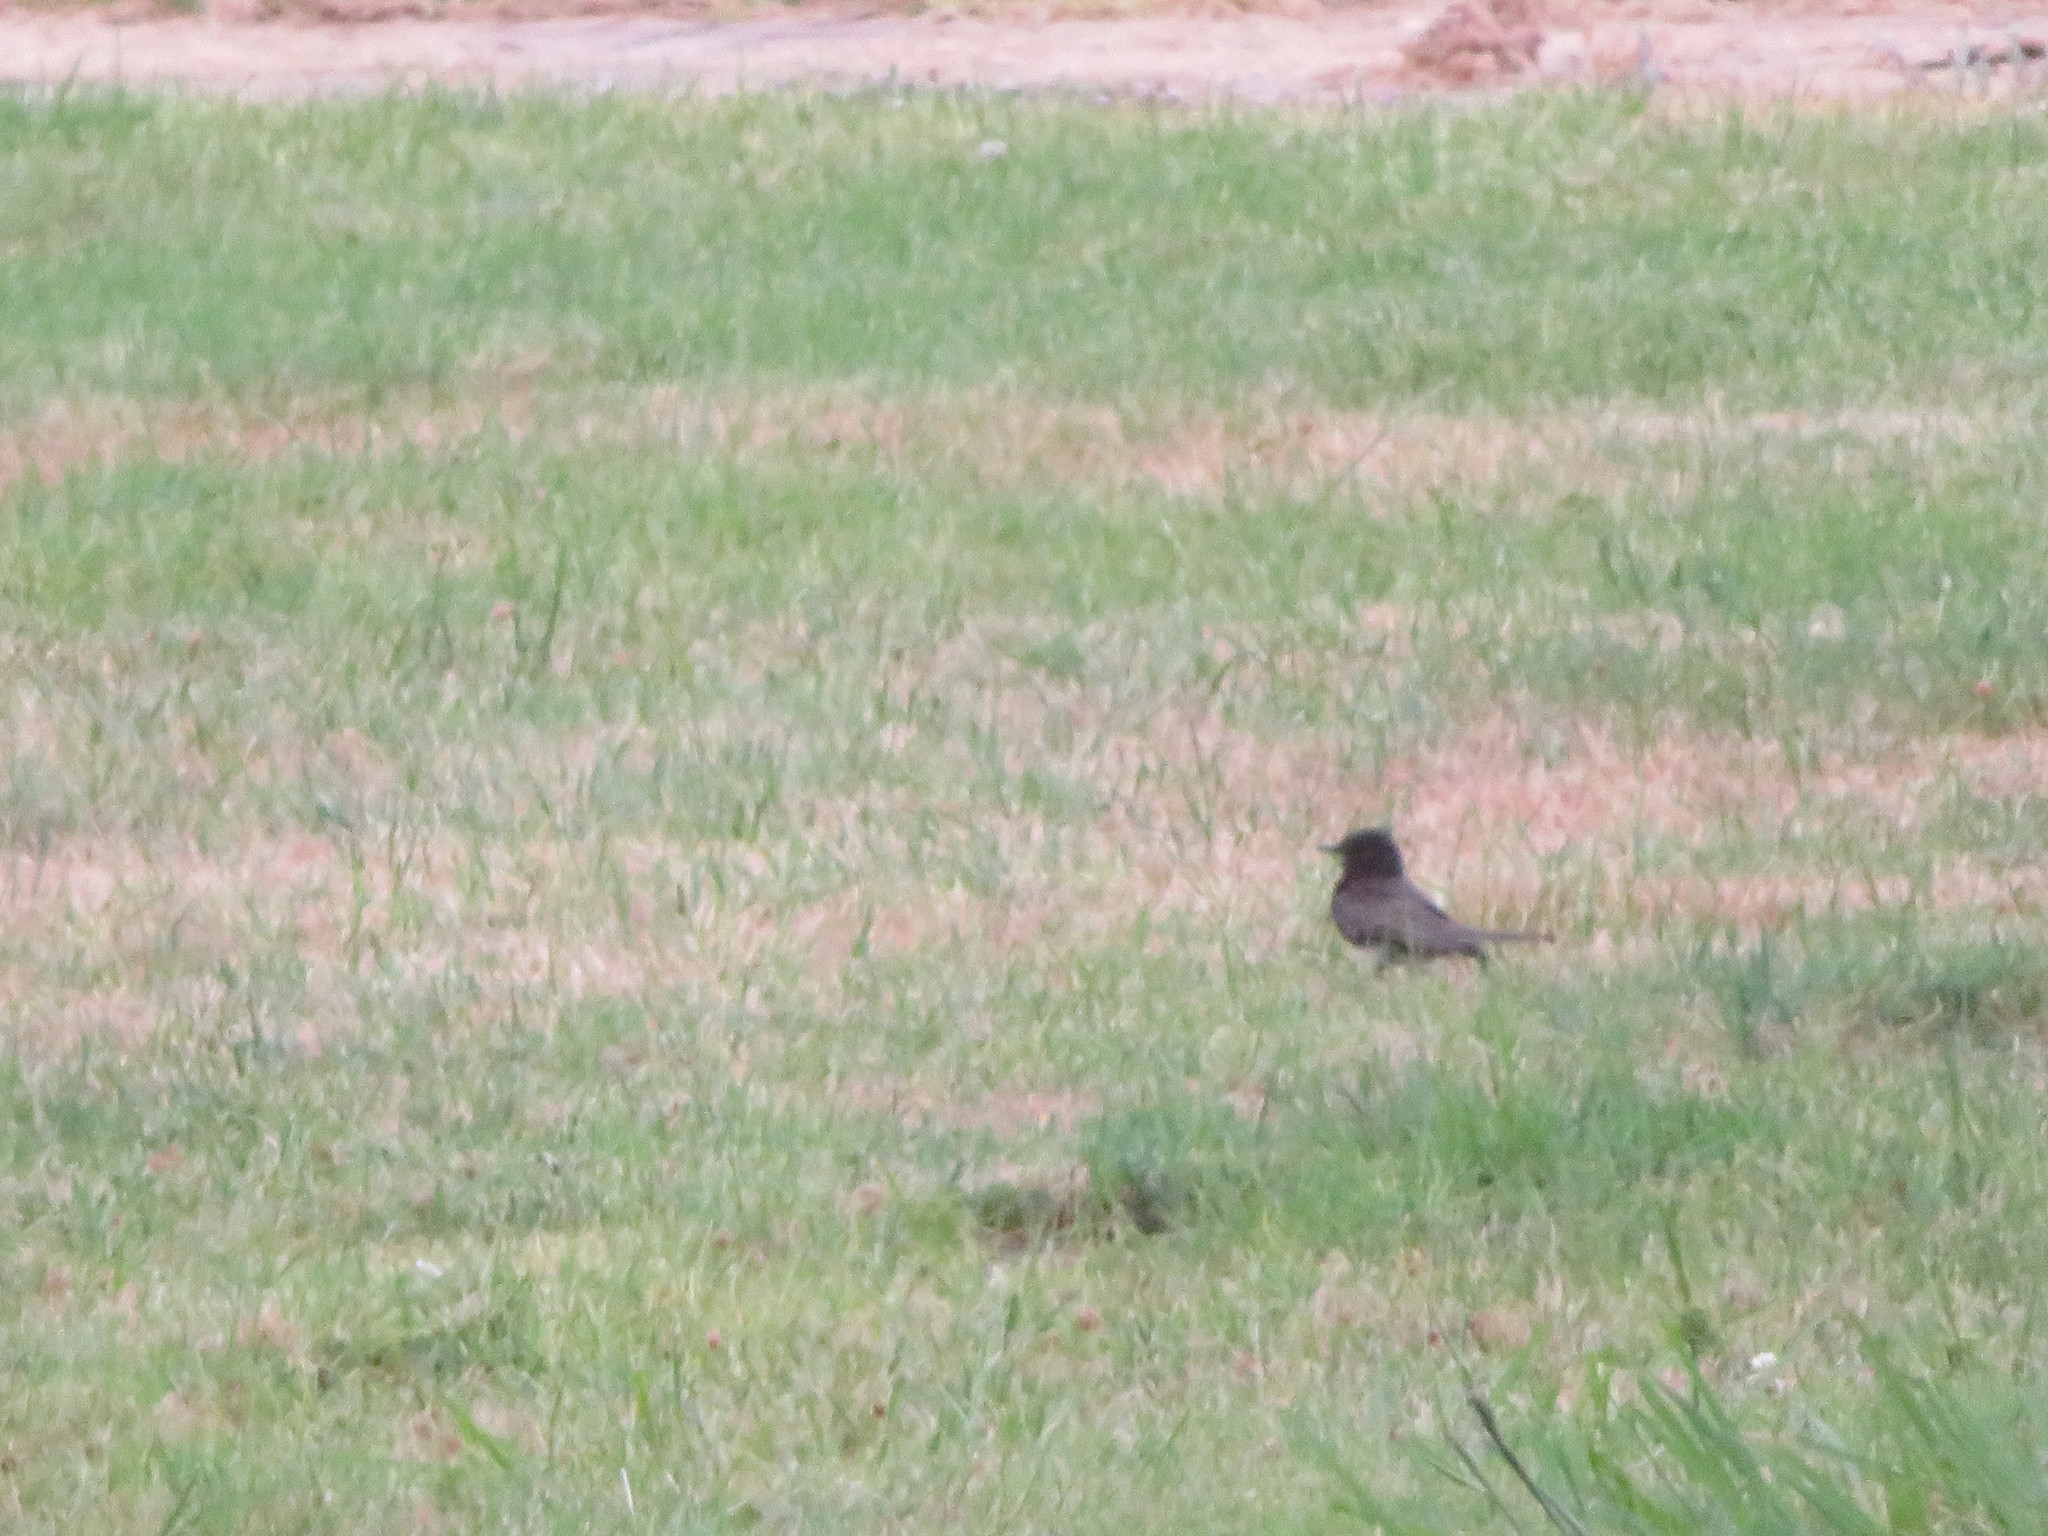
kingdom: Animalia
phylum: Chordata
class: Aves
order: Passeriformes
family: Tyrannidae
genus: Sayornis
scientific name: Sayornis nigricans
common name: Black phoebe
